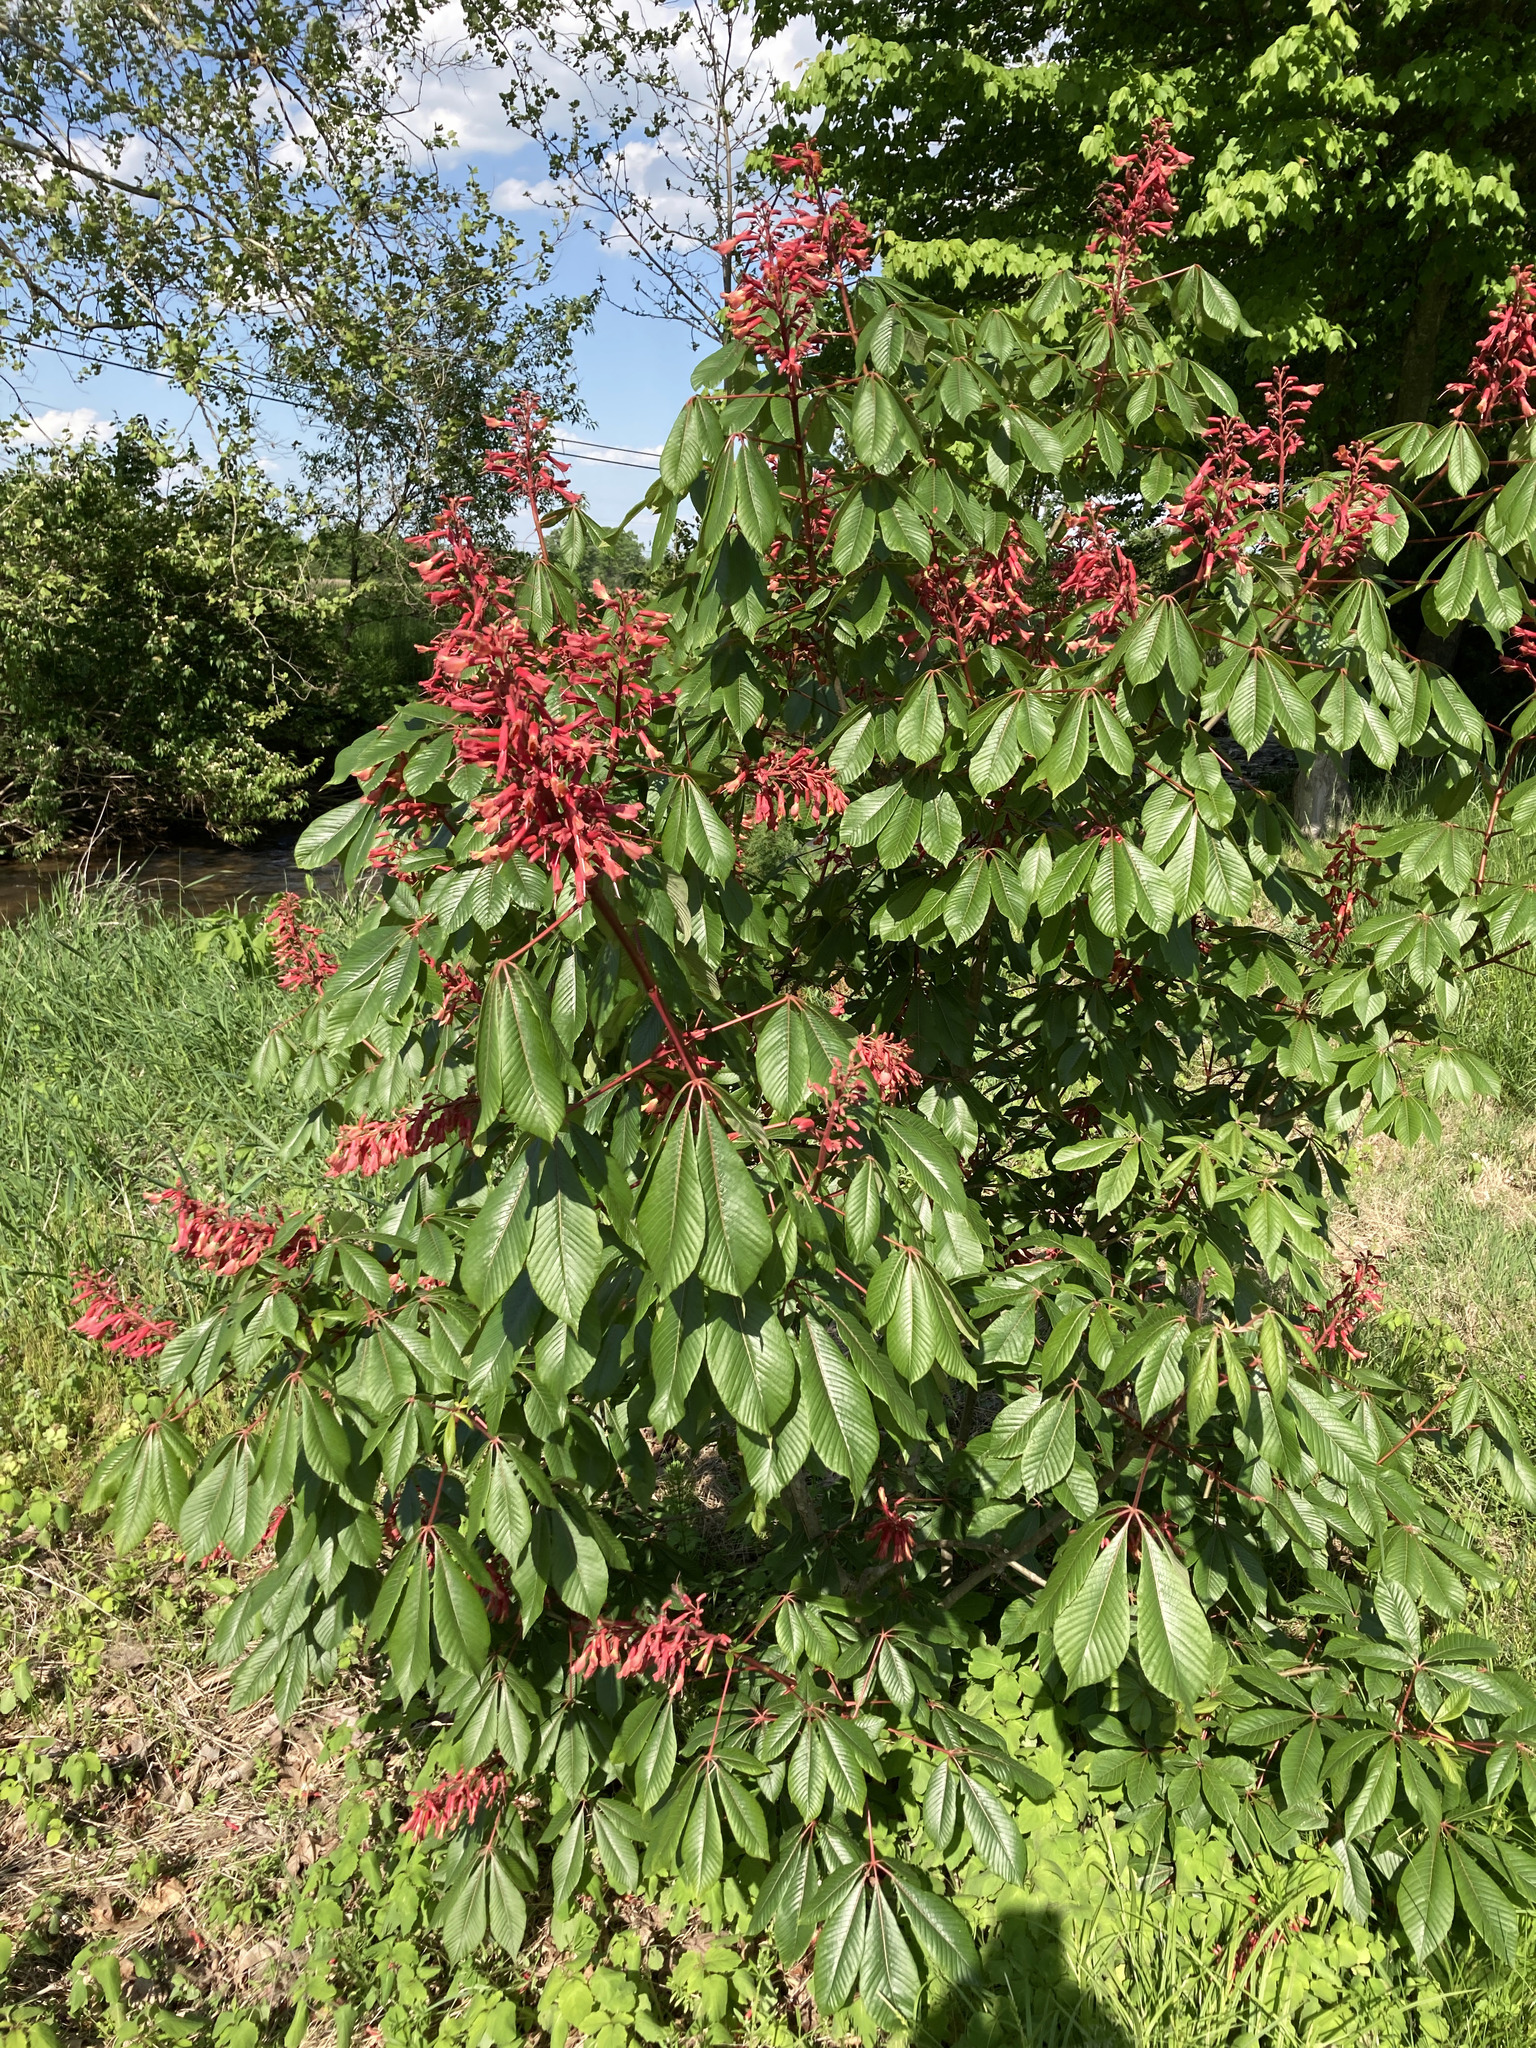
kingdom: Plantae
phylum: Tracheophyta
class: Magnoliopsida
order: Sapindales
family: Sapindaceae
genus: Aesculus
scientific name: Aesculus pavia
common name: Red buckeye
